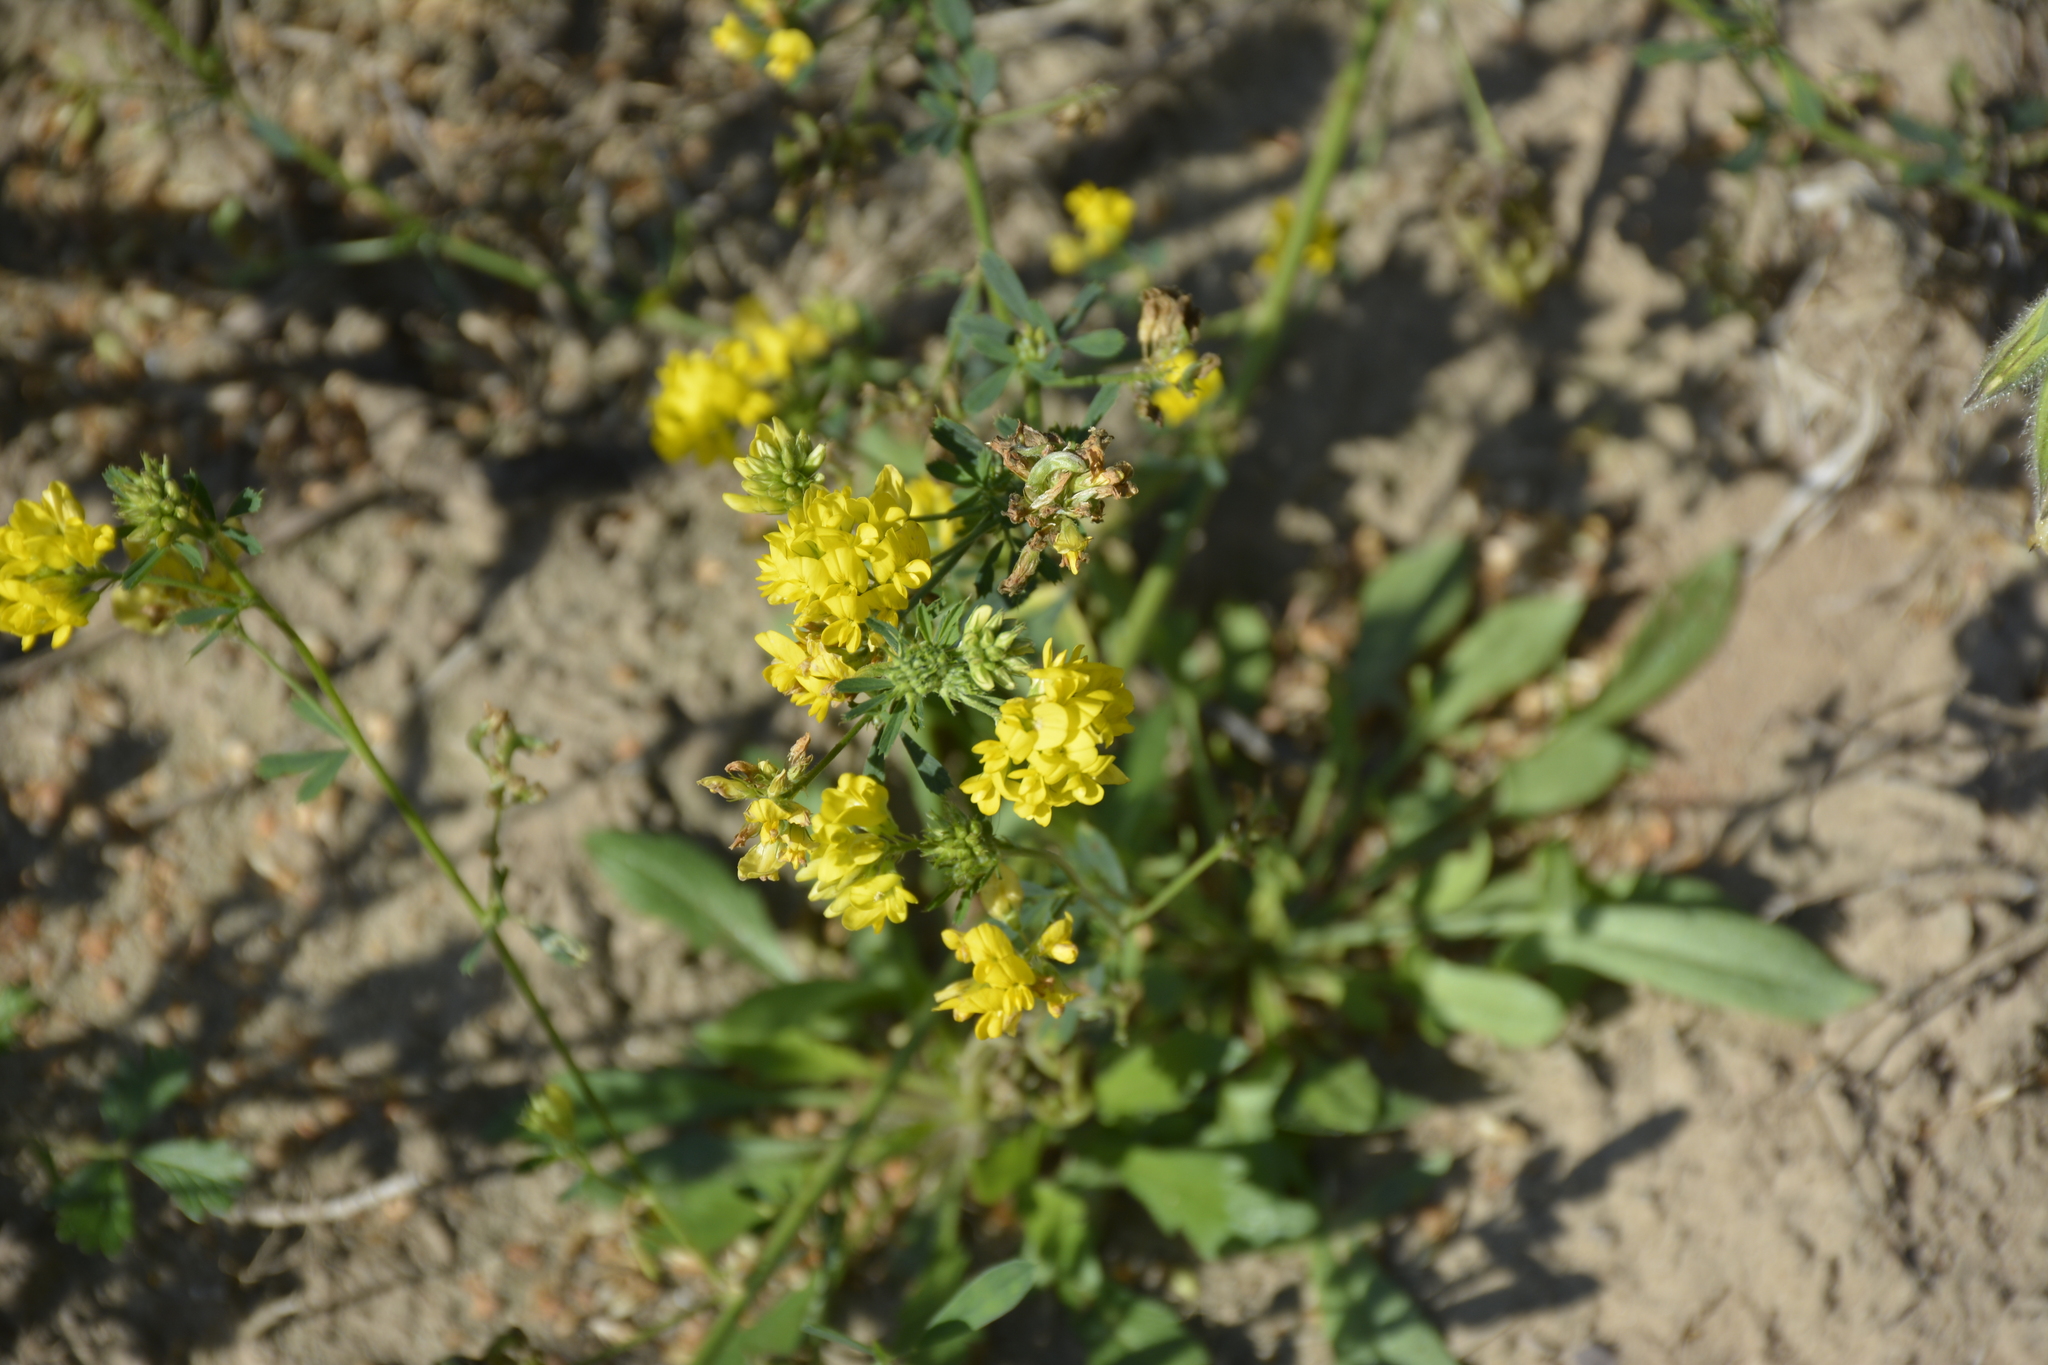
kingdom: Plantae
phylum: Tracheophyta
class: Magnoliopsida
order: Fabales
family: Fabaceae
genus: Medicago
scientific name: Medicago falcata
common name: Sickle medick
